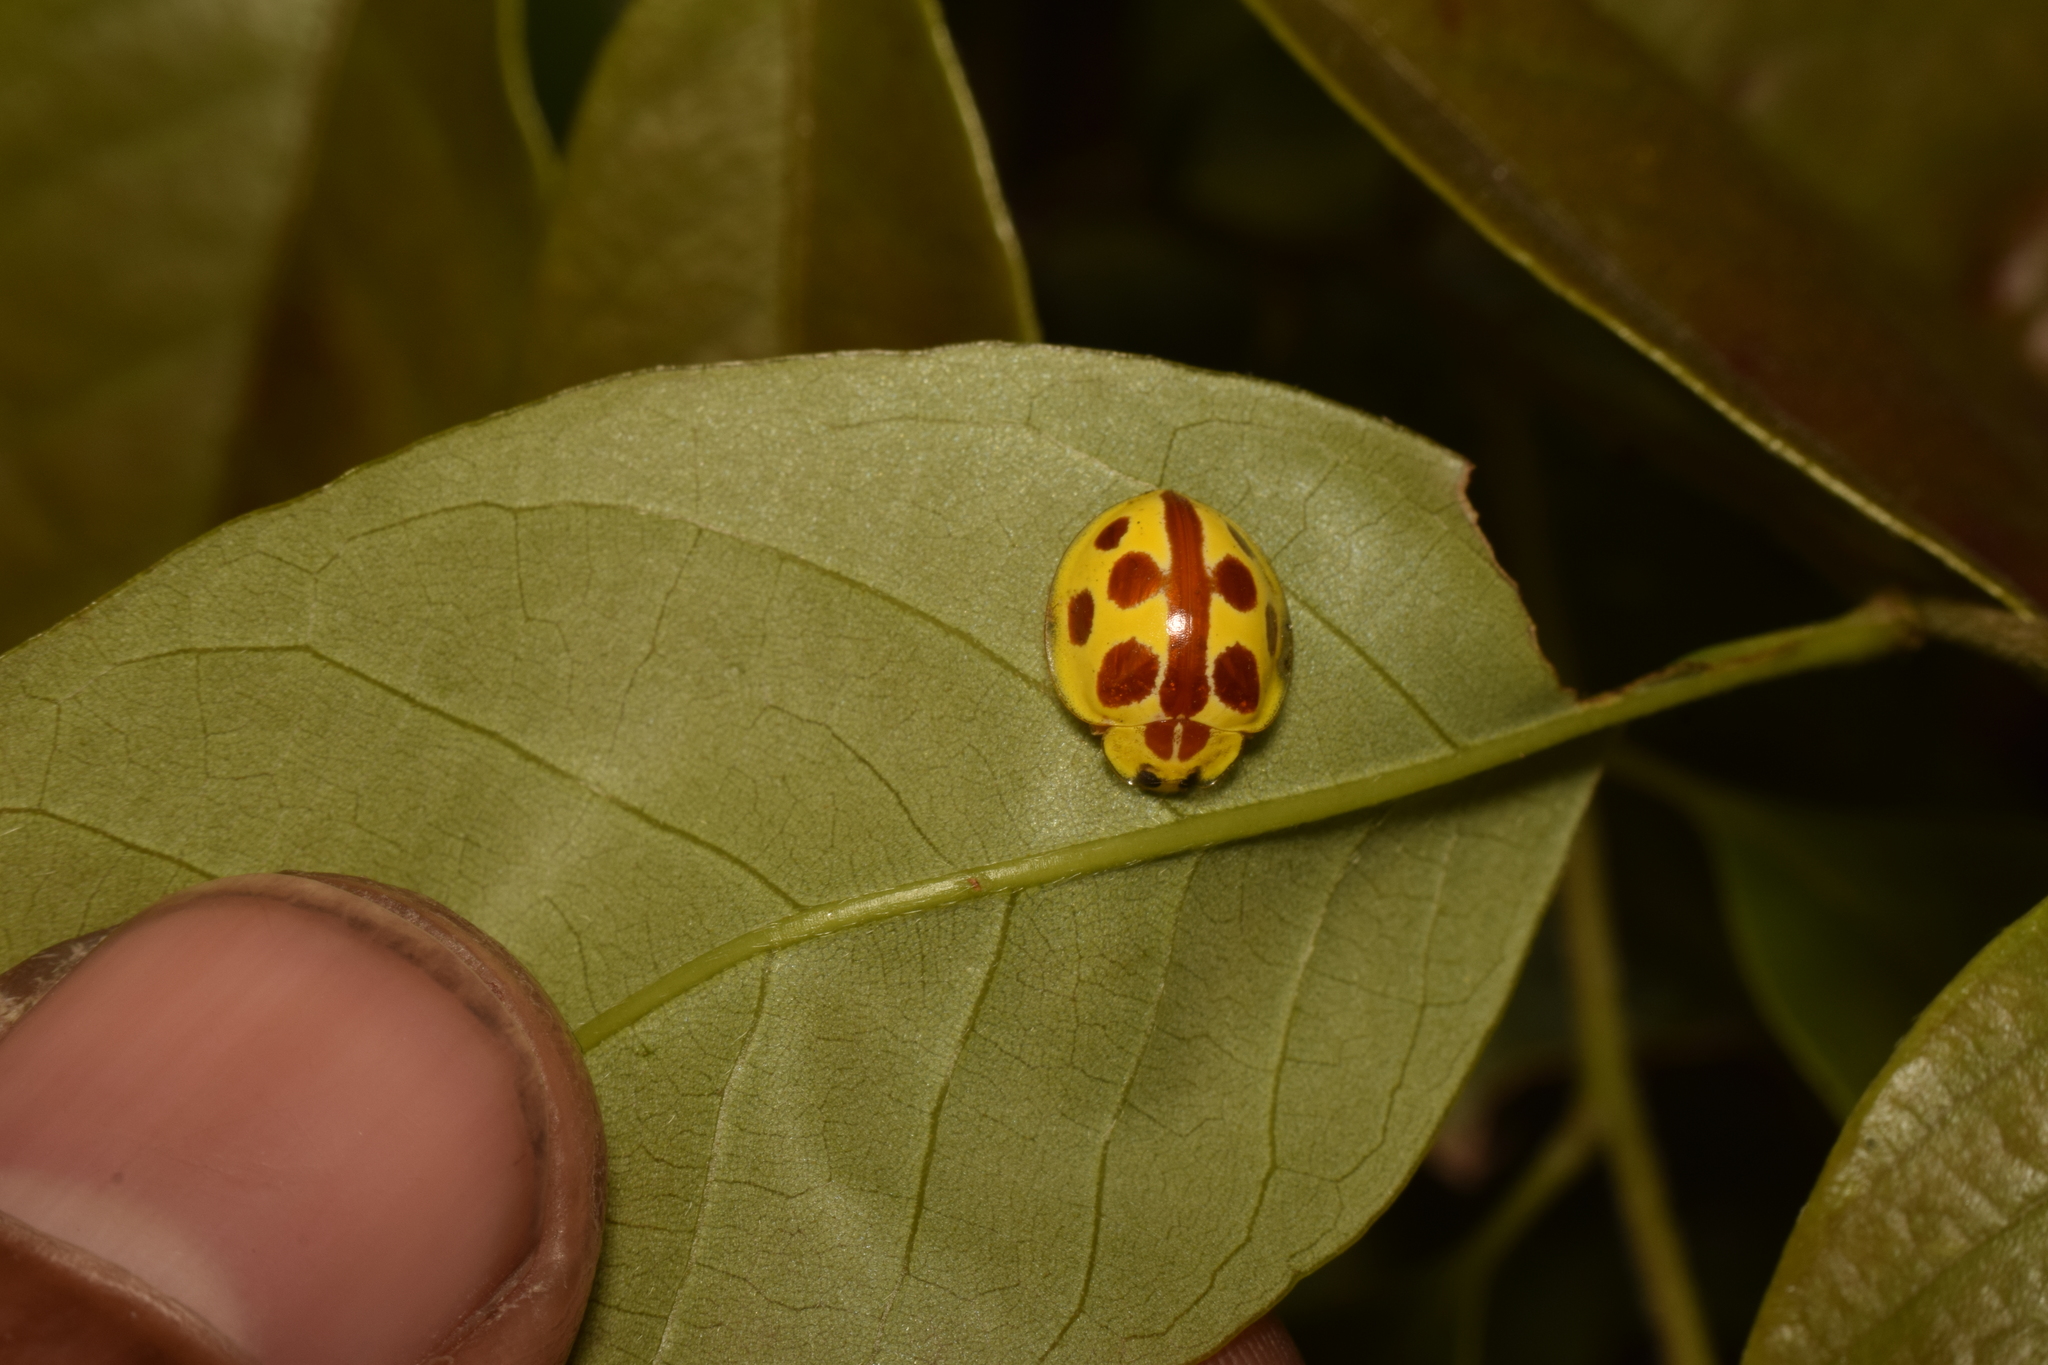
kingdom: Animalia
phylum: Arthropoda
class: Insecta
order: Coleoptera
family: Coccinellidae
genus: Halyzia
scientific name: Halyzia straminea
